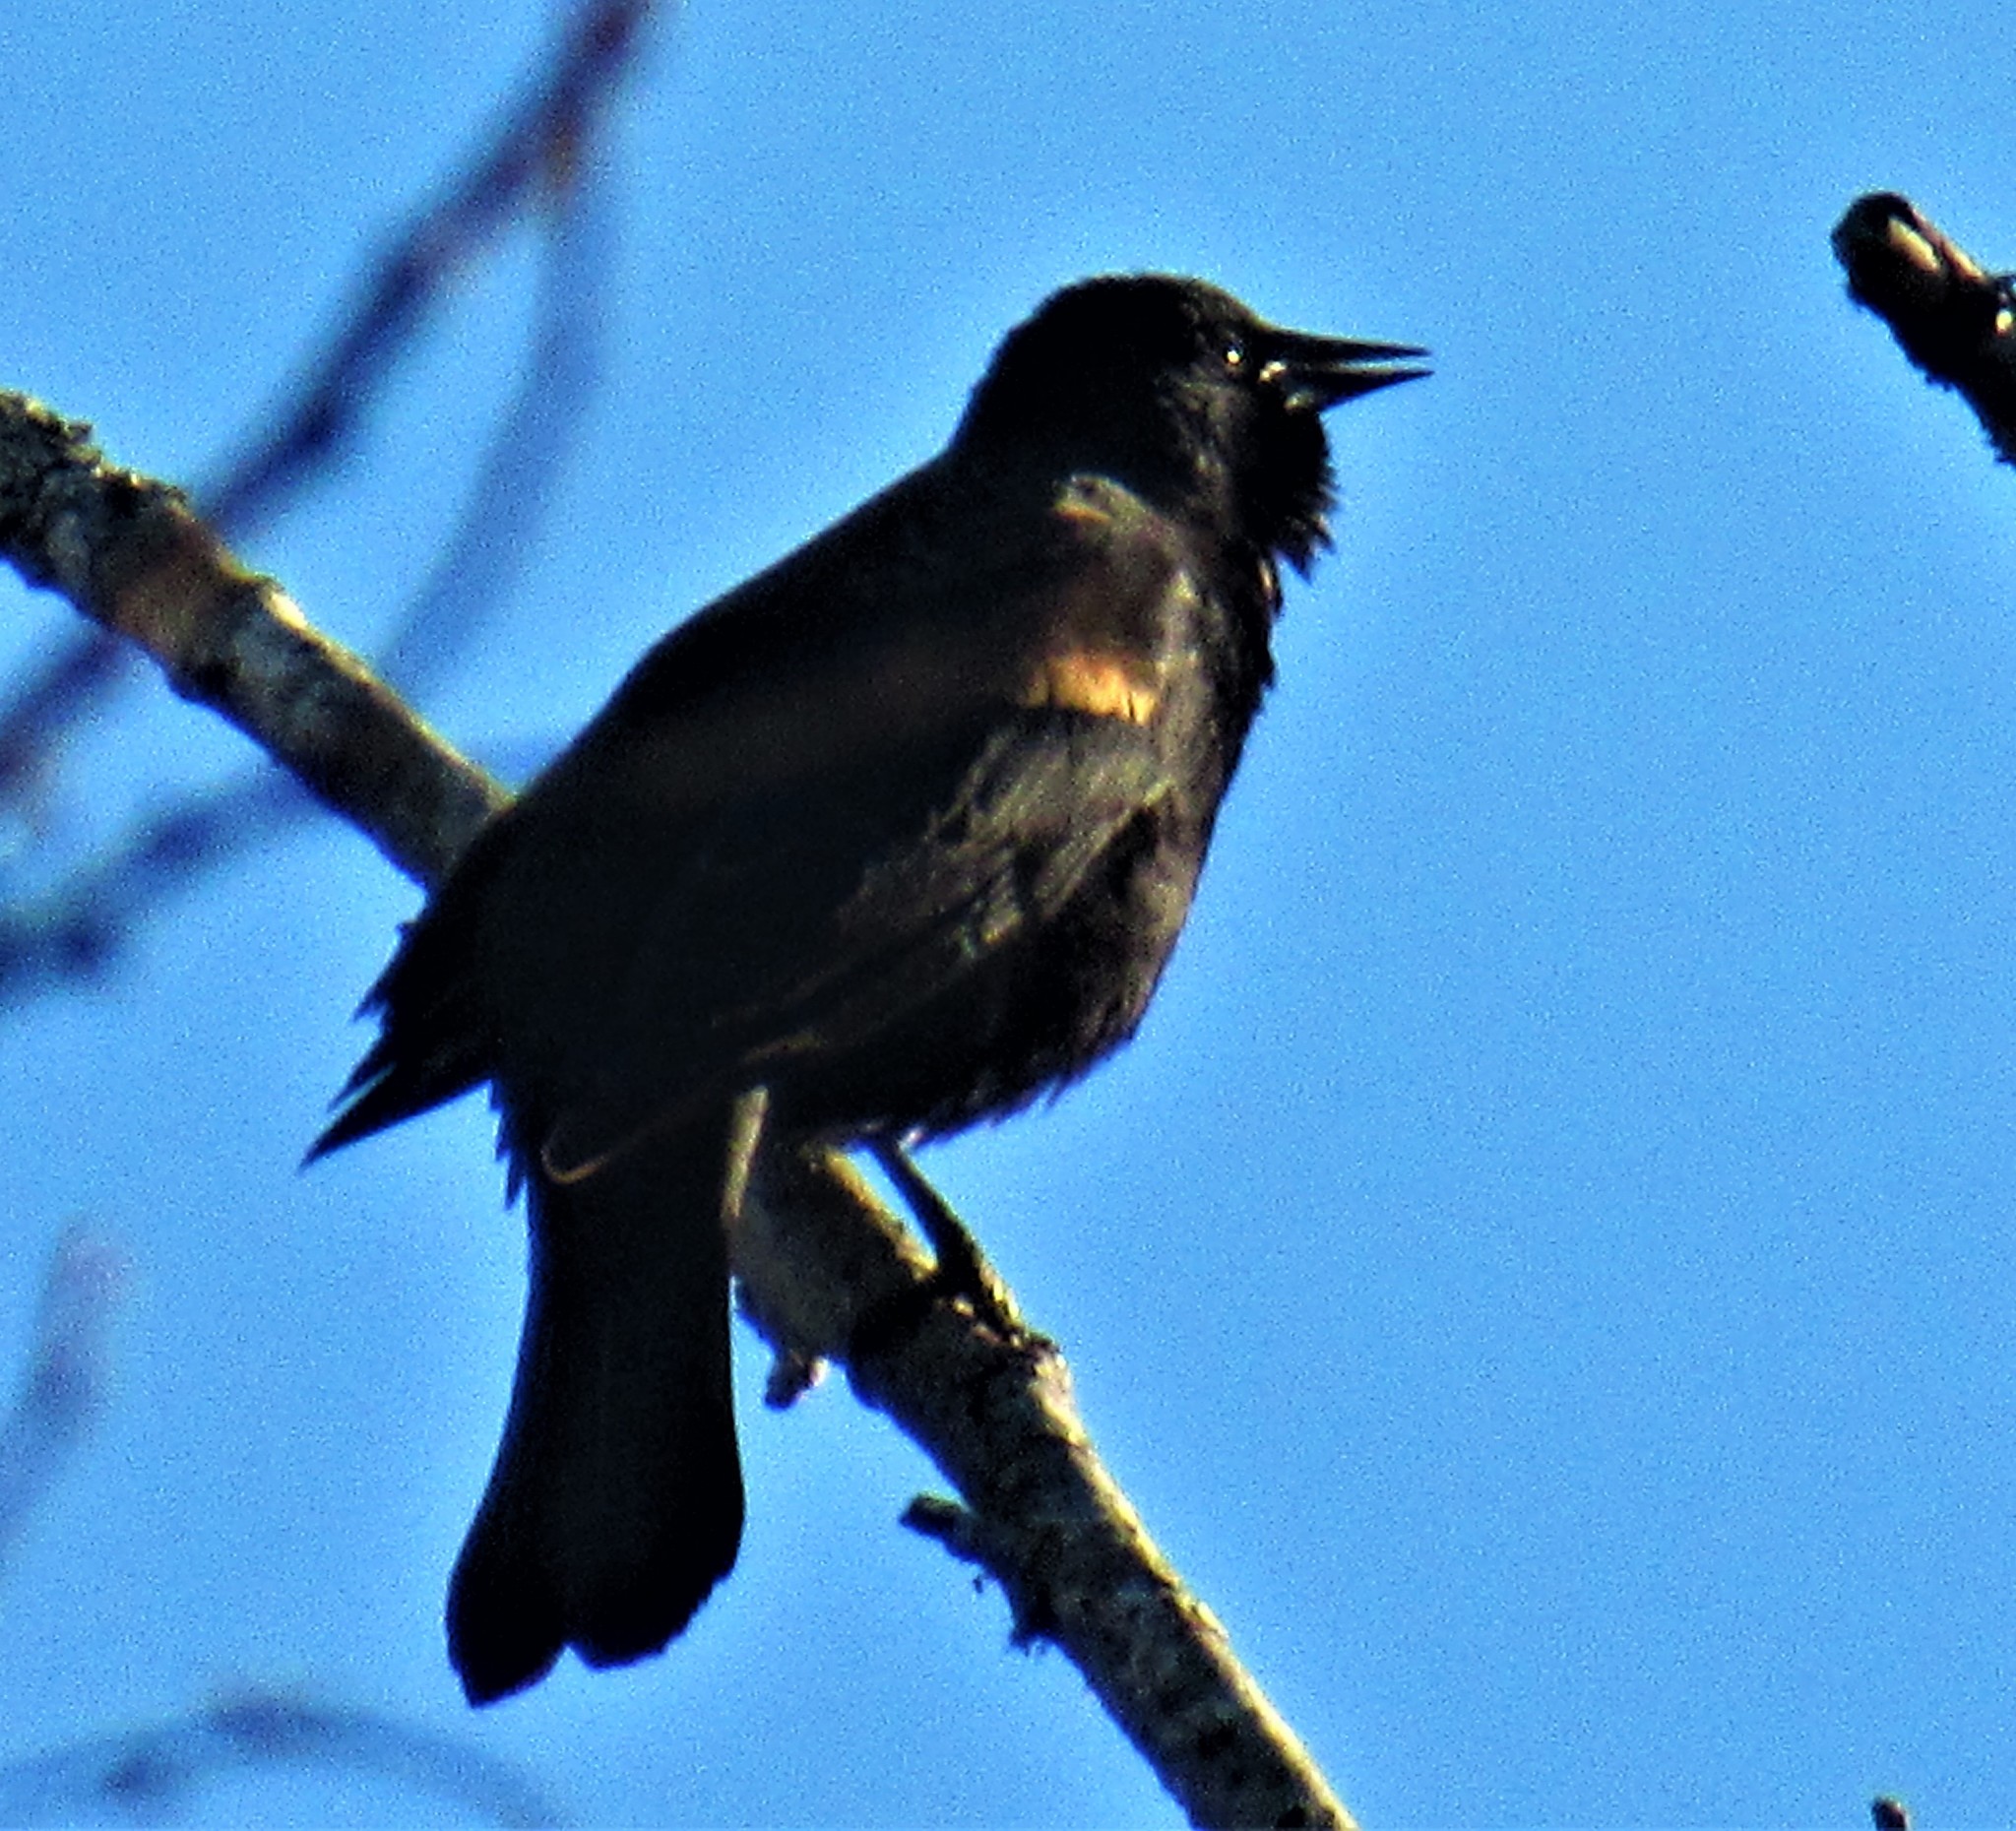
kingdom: Animalia
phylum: Chordata
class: Aves
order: Passeriformes
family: Icteridae
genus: Agelaius
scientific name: Agelaius phoeniceus
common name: Red-winged blackbird
